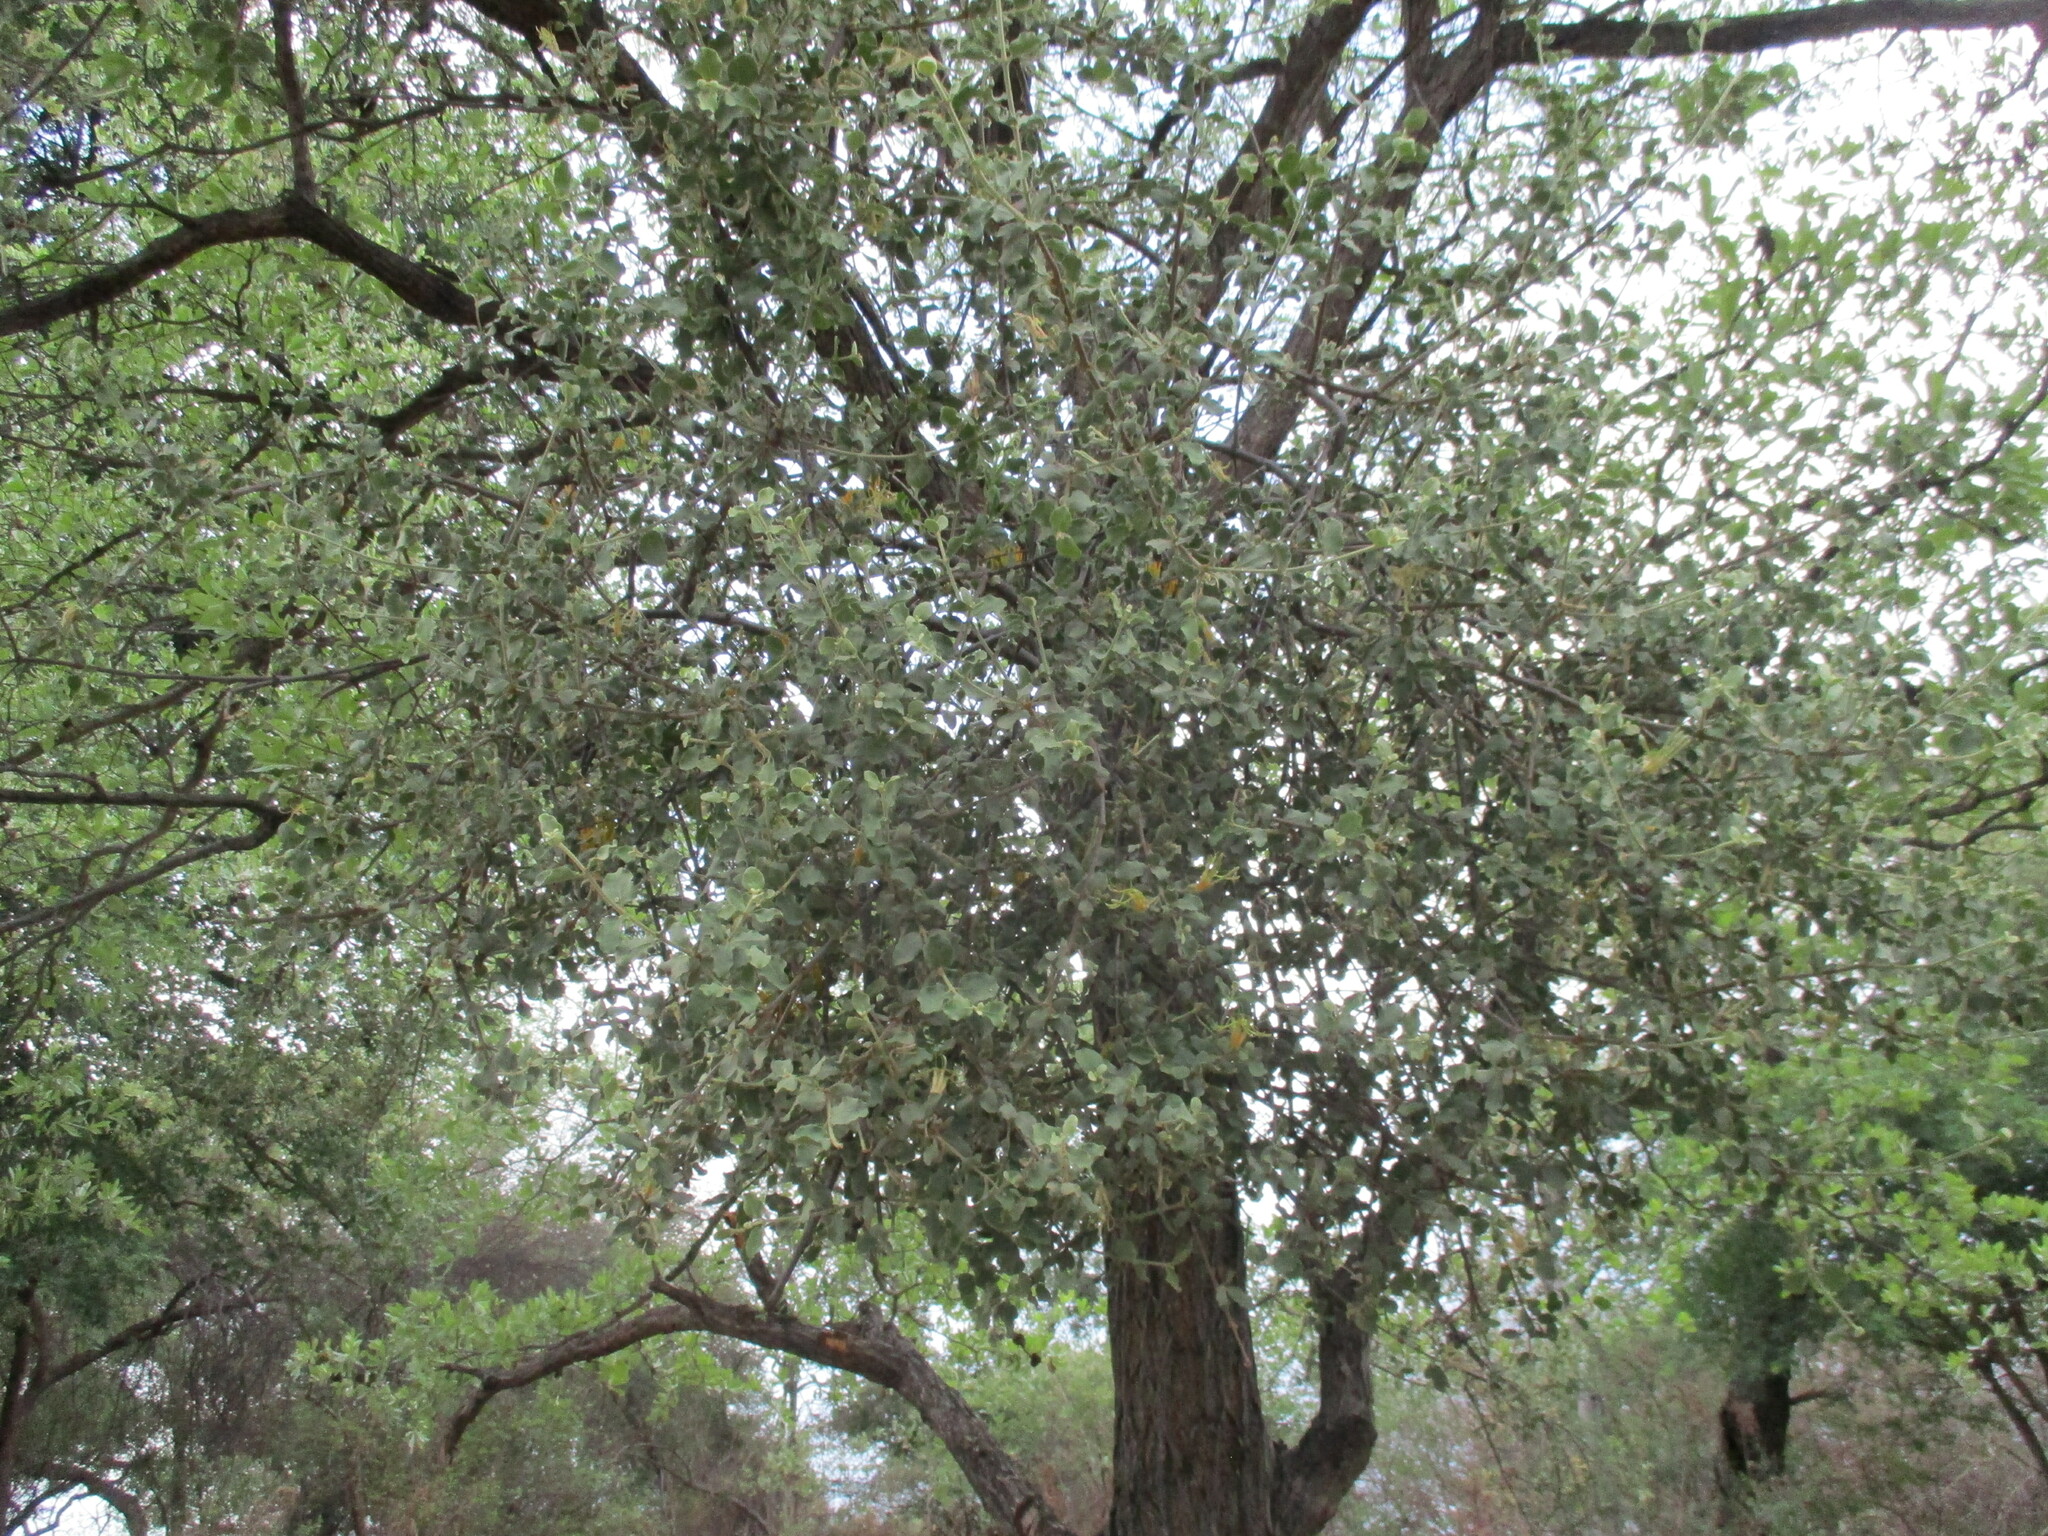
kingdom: Plantae
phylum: Tracheophyta
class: Magnoliopsida
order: Santalales
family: Loranthaceae
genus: Erianthemum
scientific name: Erianthemum ngamicum
